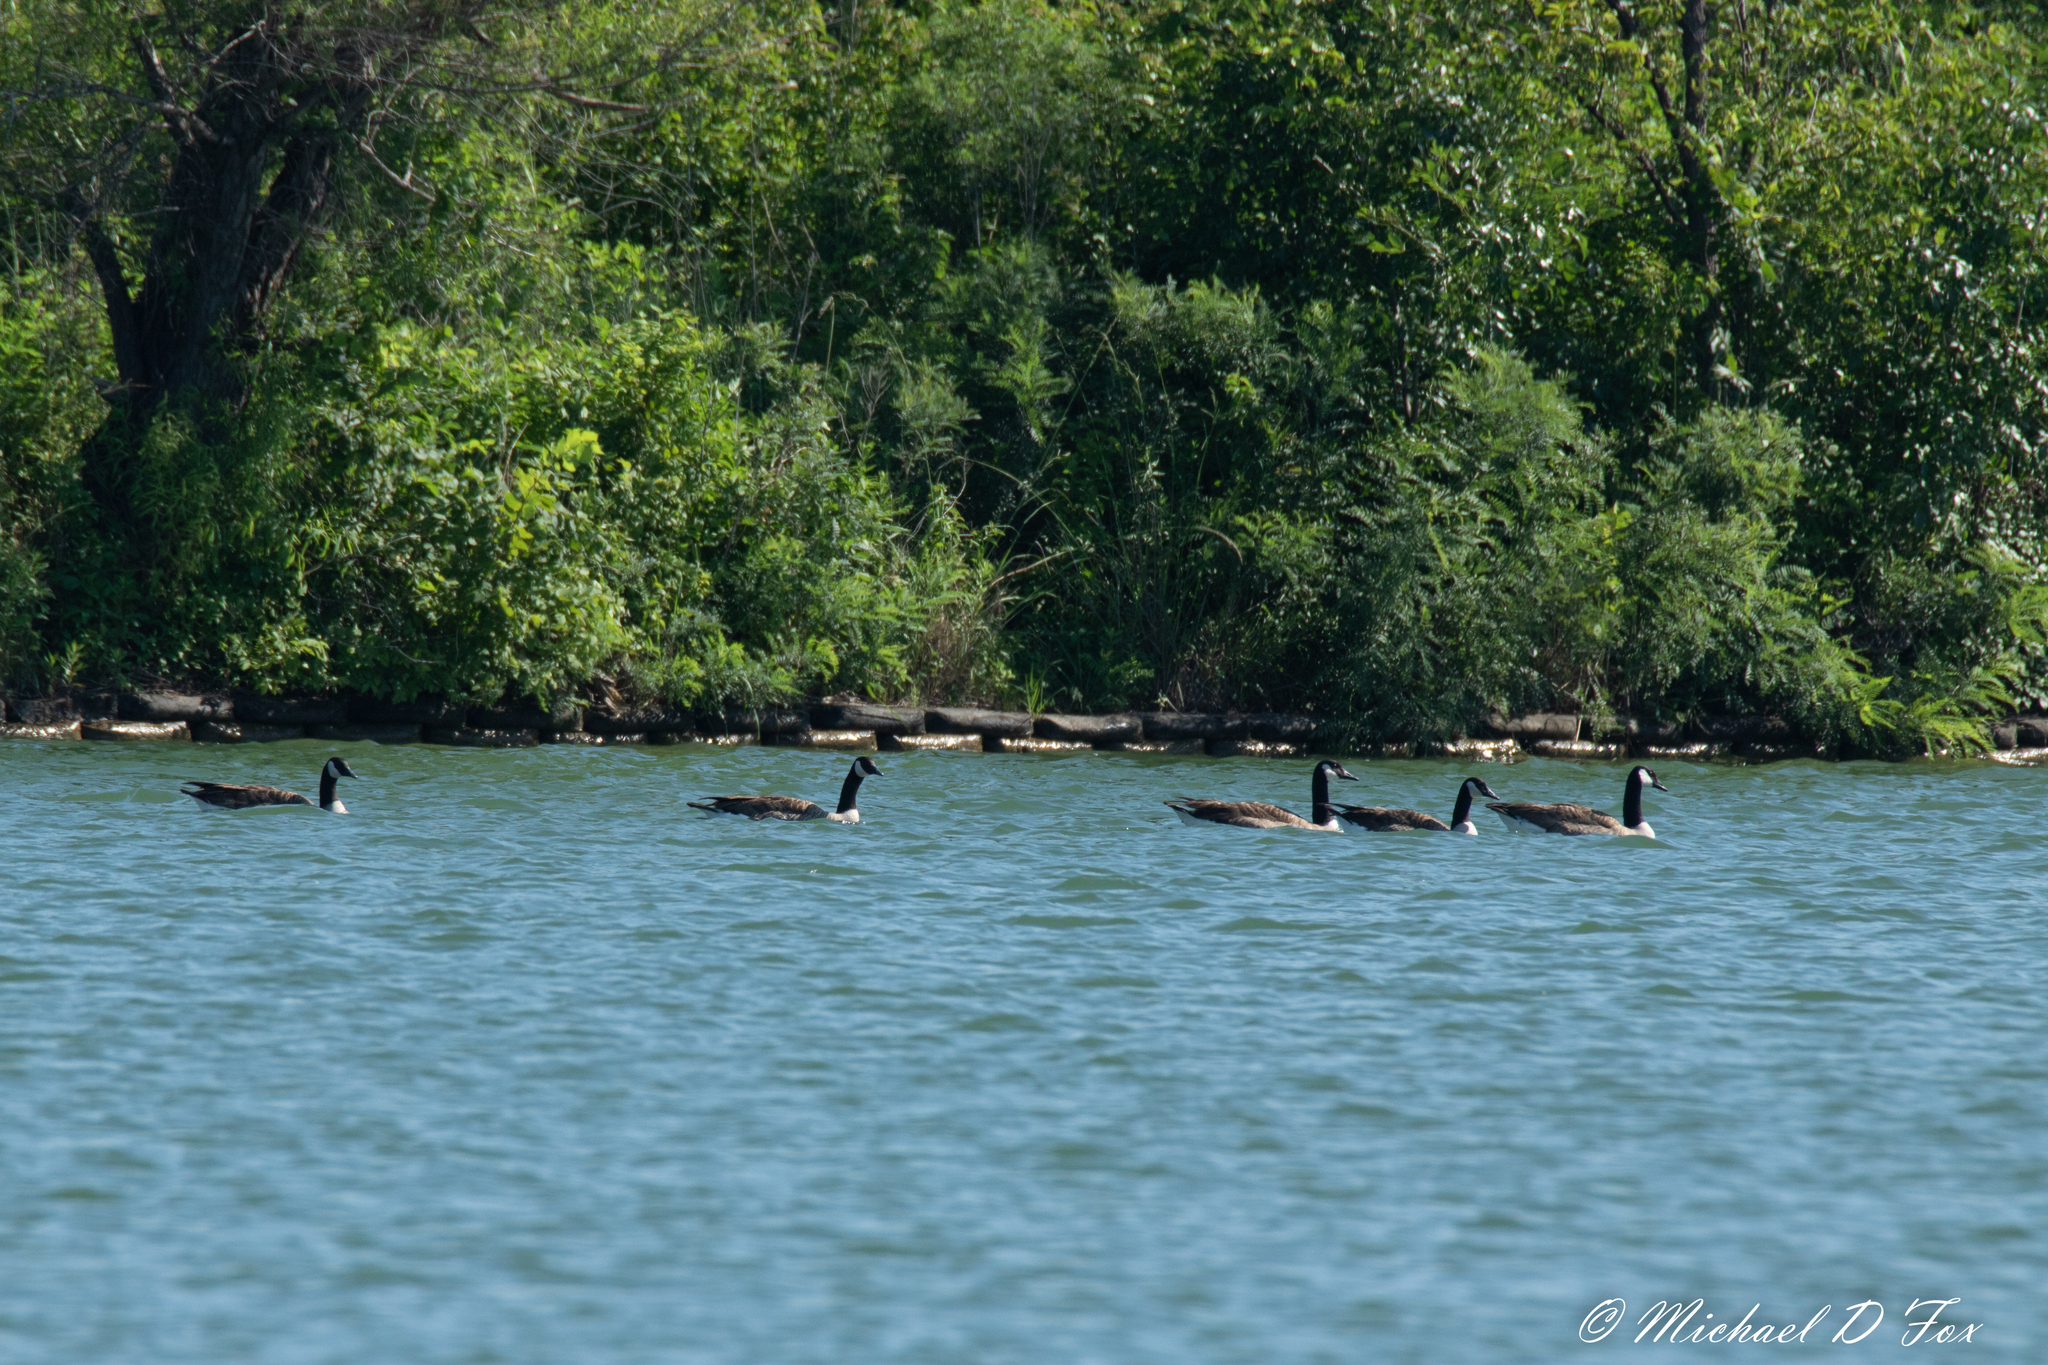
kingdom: Animalia
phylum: Chordata
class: Aves
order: Anseriformes
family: Anatidae
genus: Branta
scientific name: Branta canadensis
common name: Canada goose
